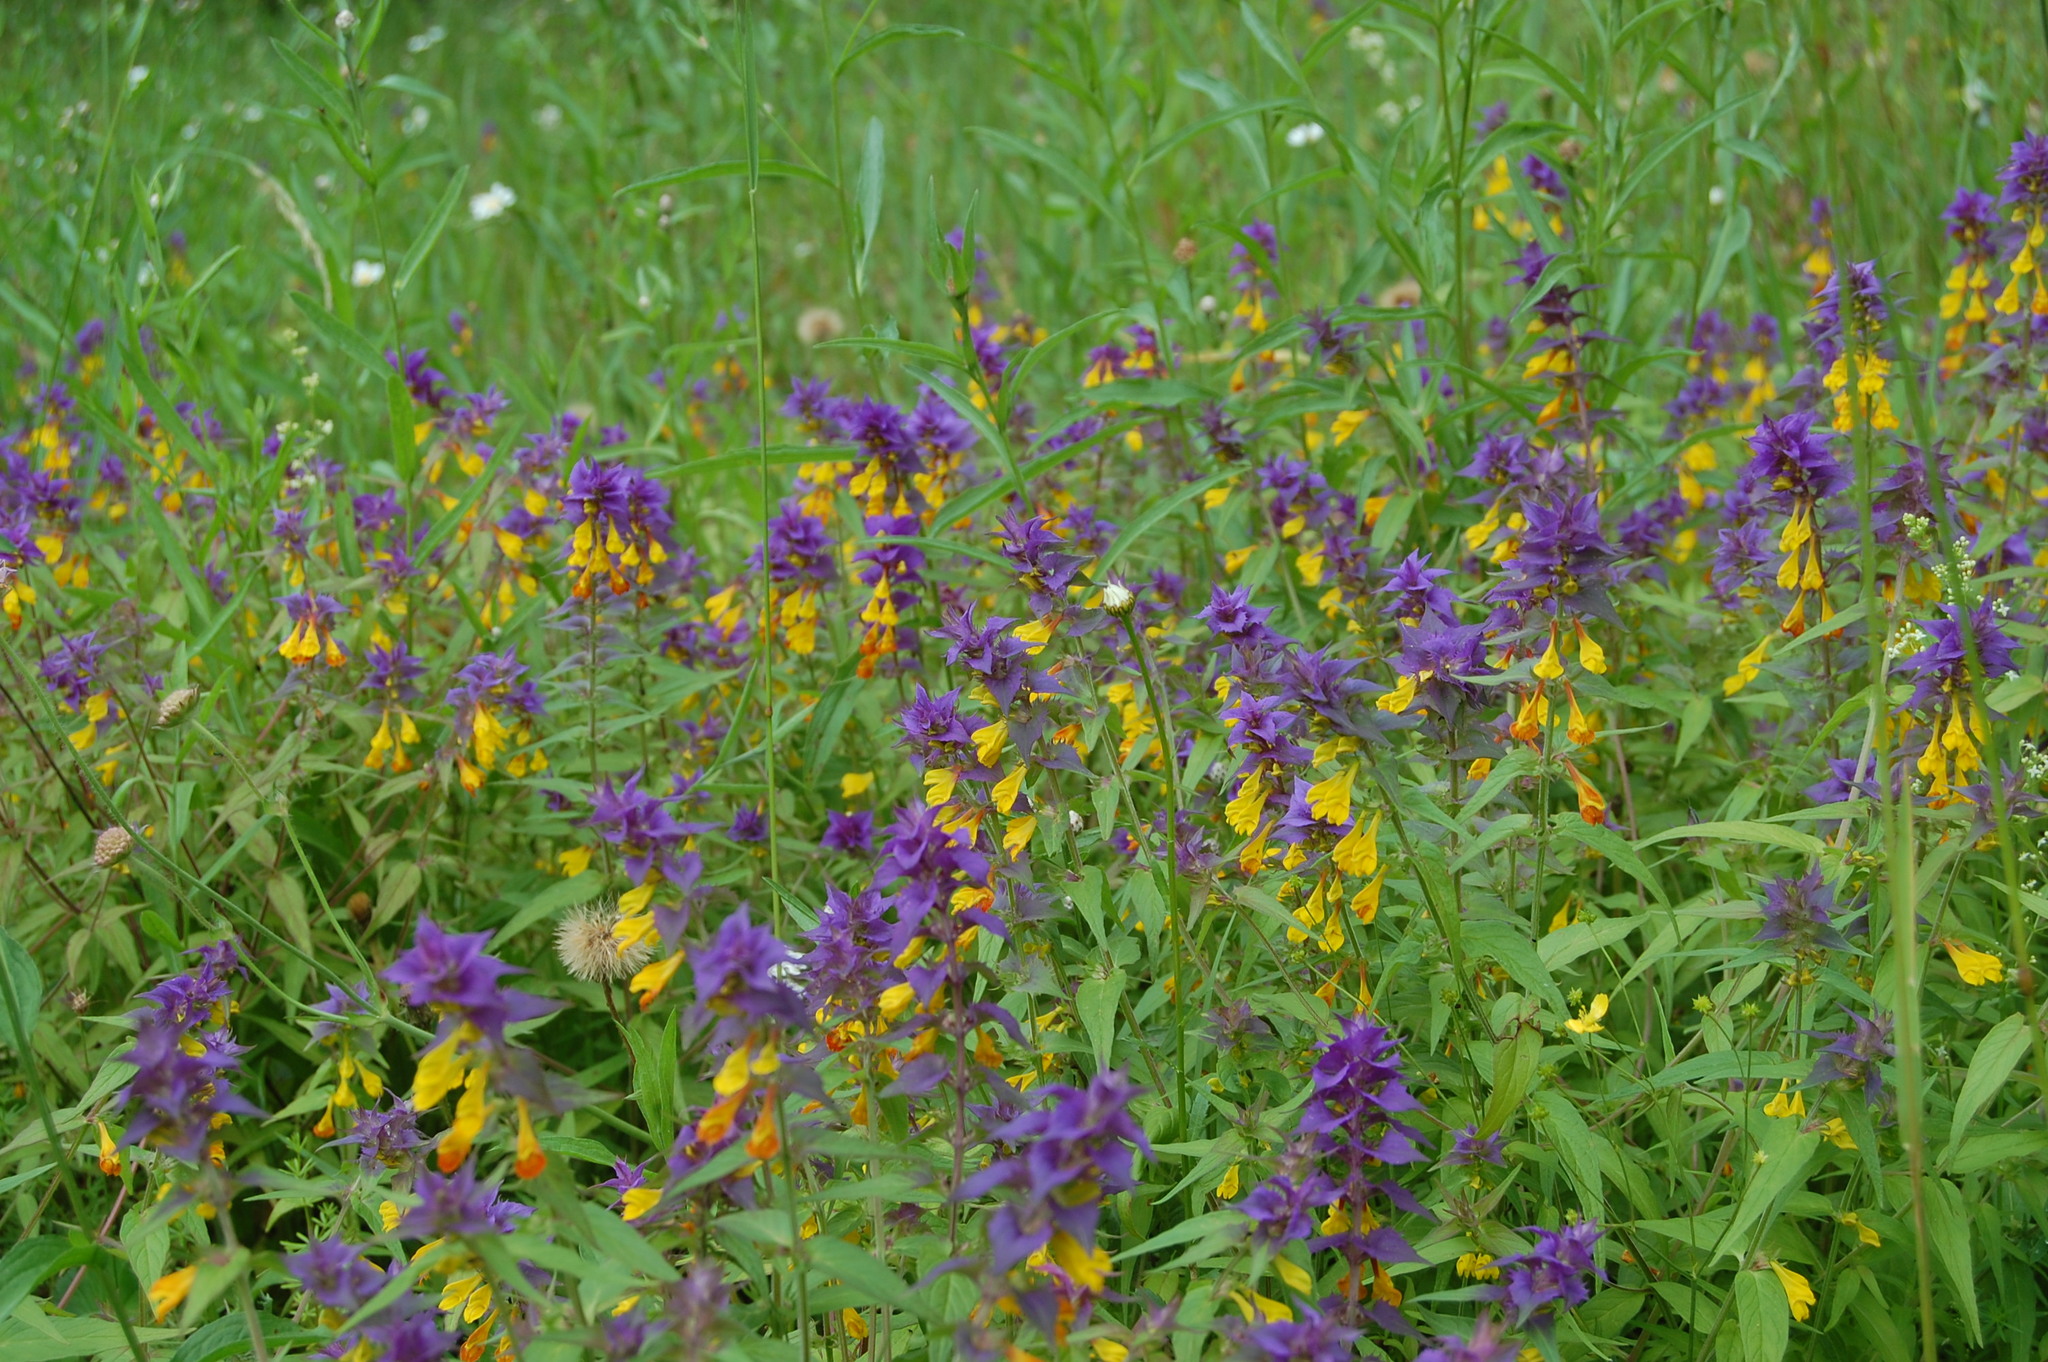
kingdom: Plantae
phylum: Tracheophyta
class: Magnoliopsida
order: Lamiales
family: Orobanchaceae
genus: Melampyrum
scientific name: Melampyrum nemorosum
